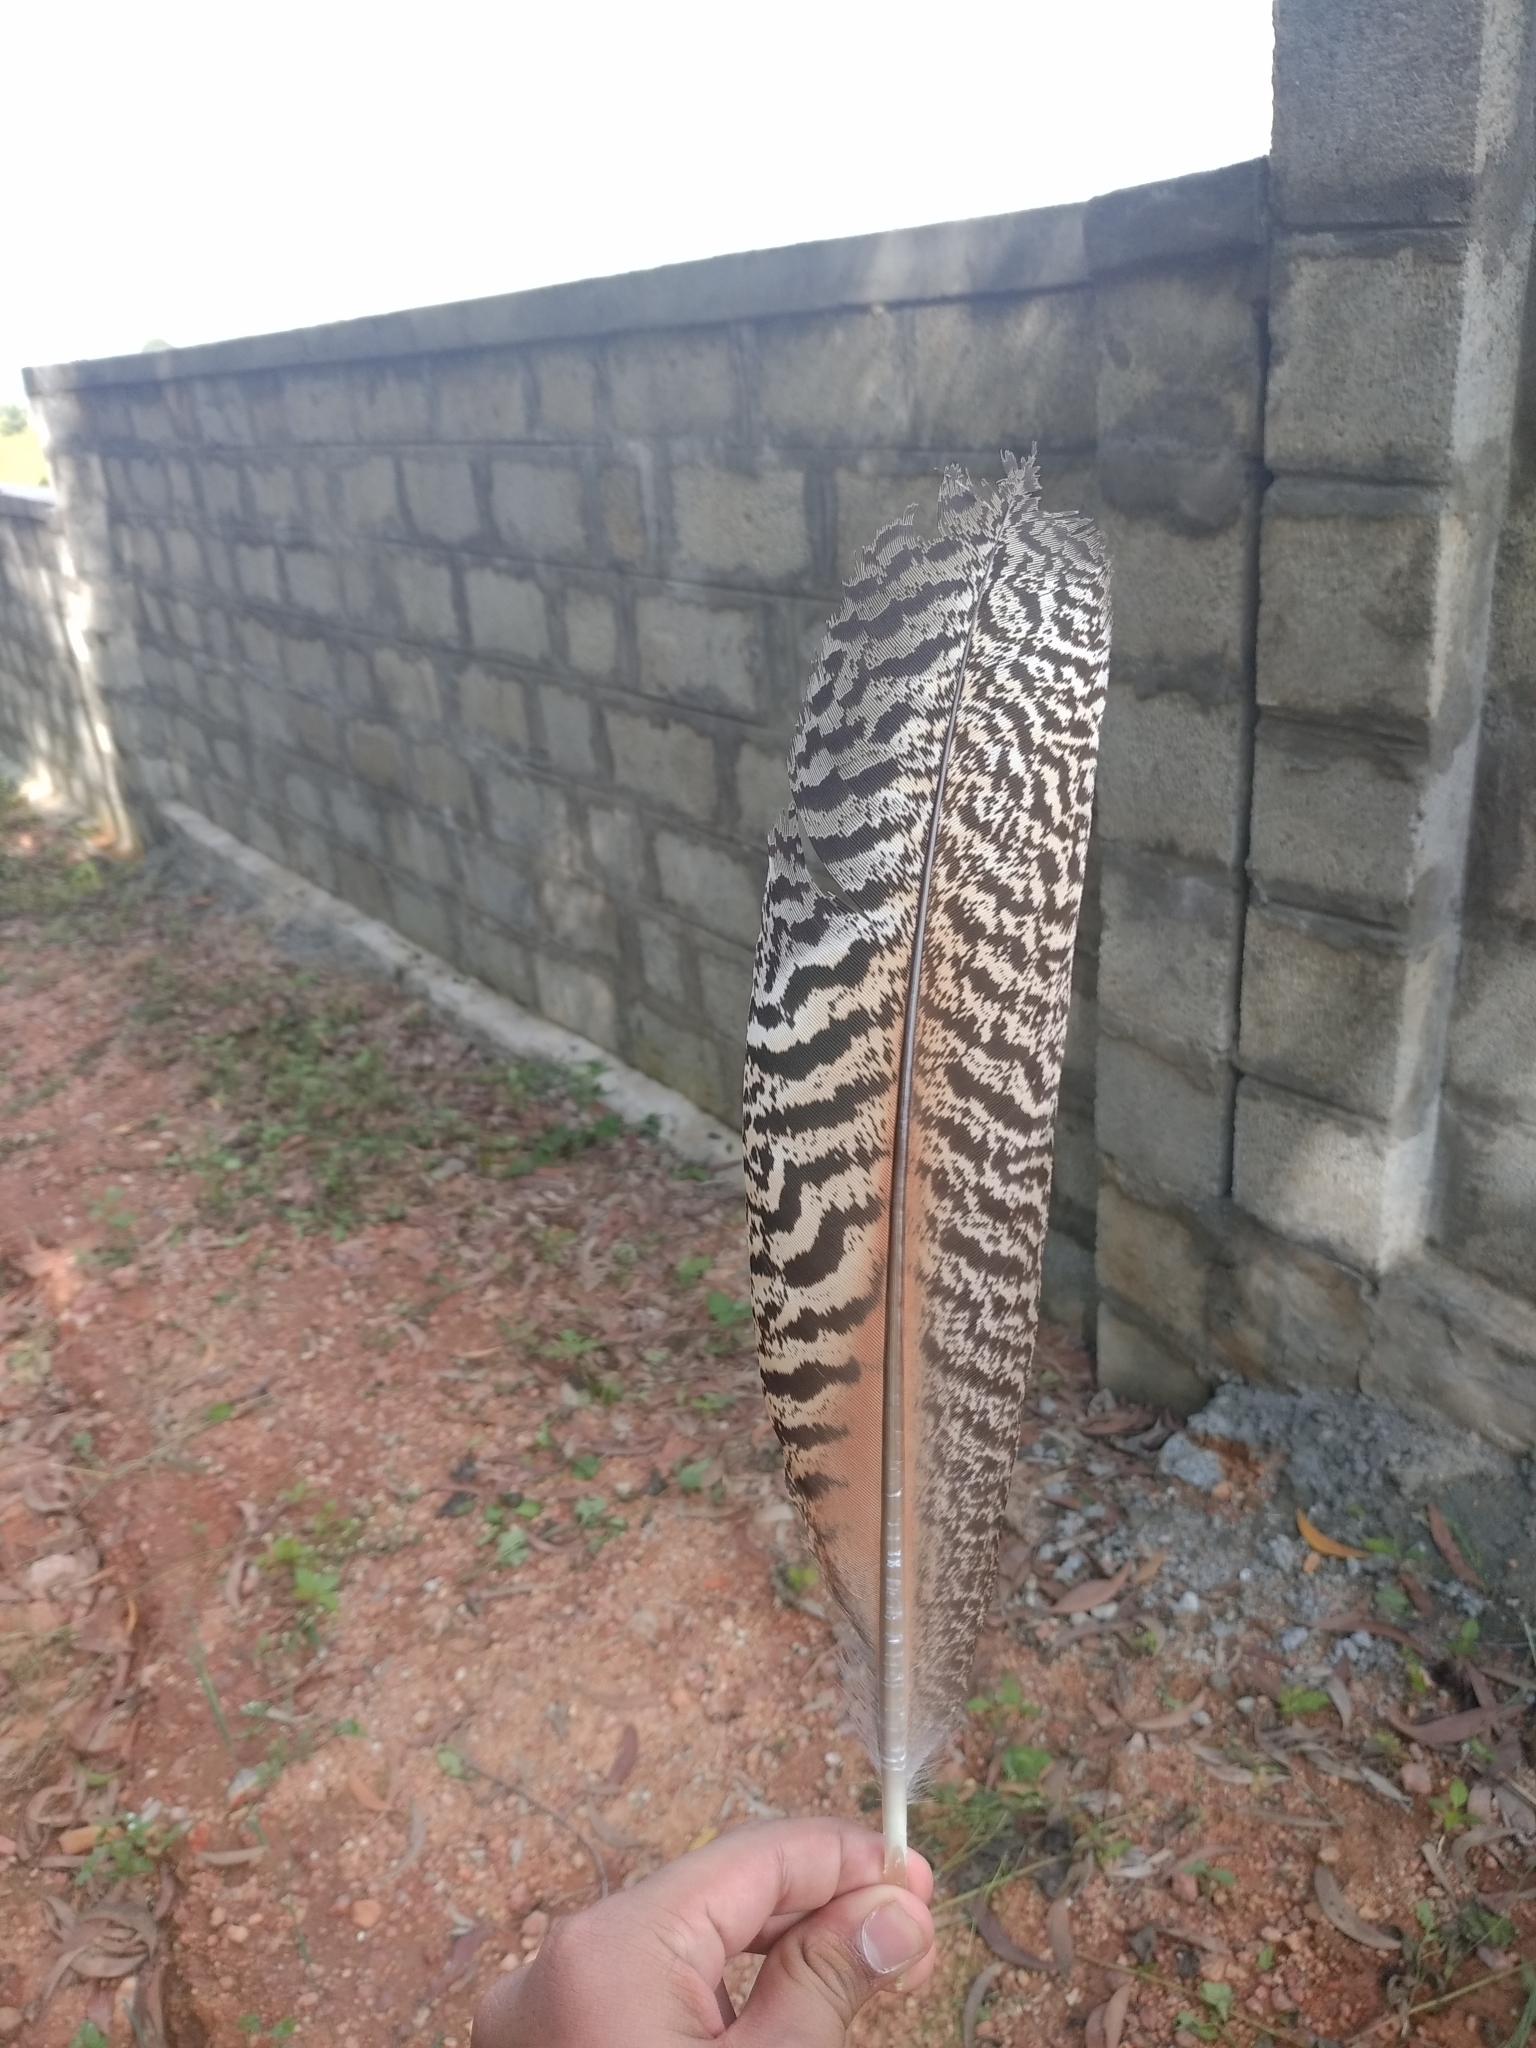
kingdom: Animalia
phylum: Chordata
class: Aves
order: Galliformes
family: Phasianidae
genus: Pavo
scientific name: Pavo cristatus
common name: Indian peafowl
